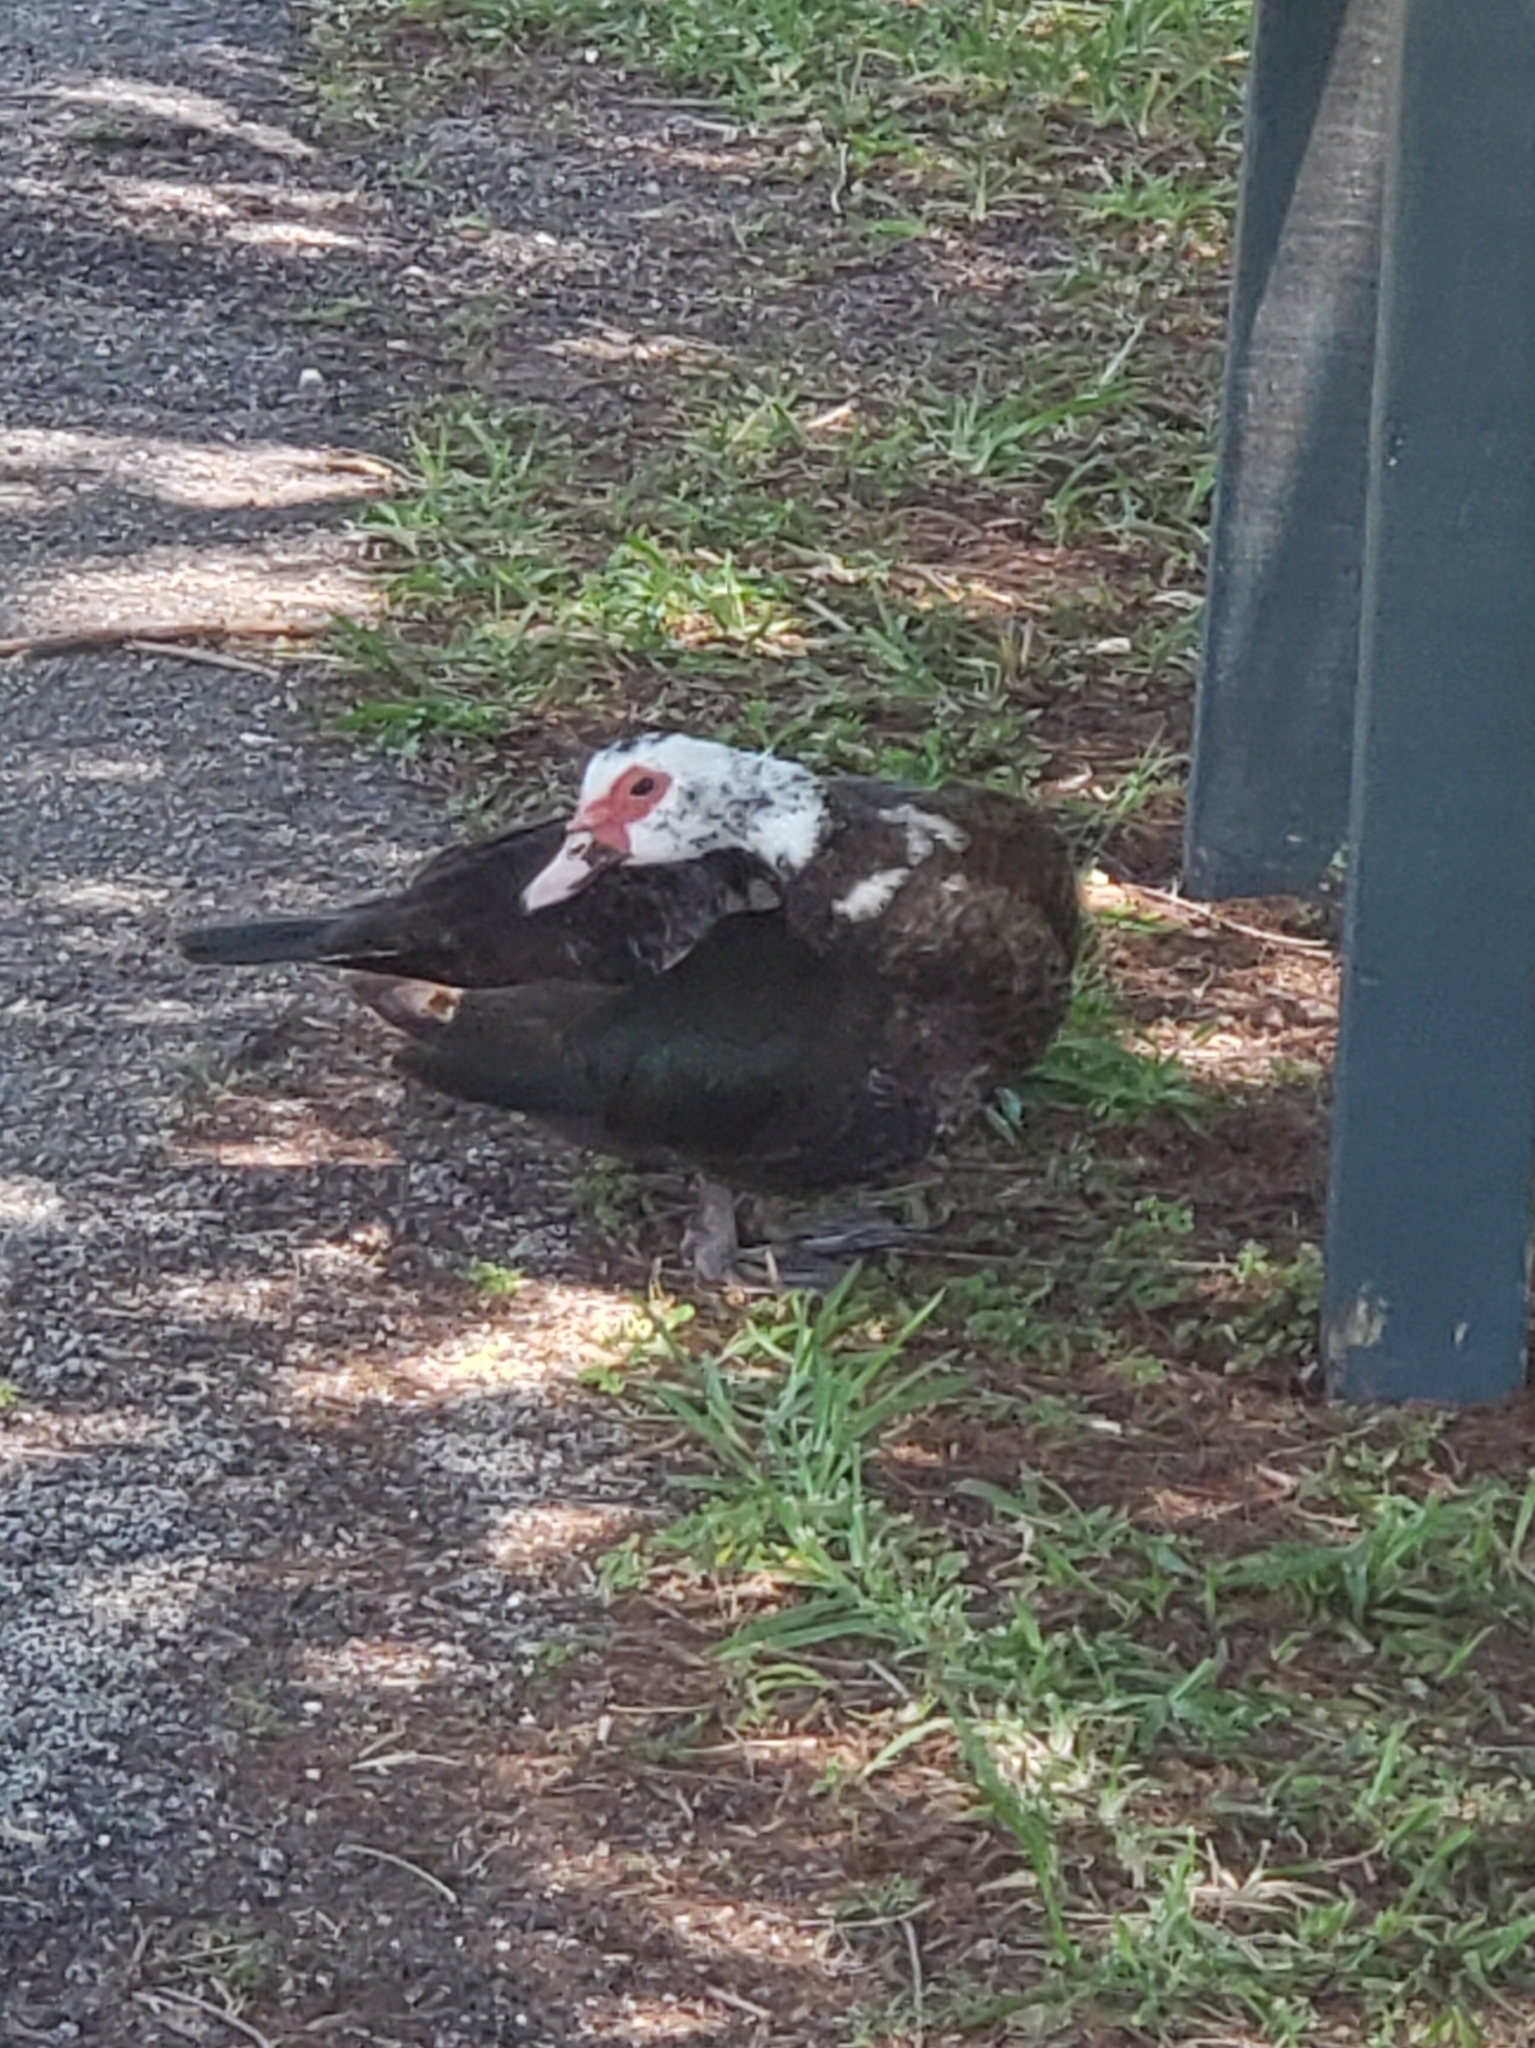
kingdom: Animalia
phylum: Chordata
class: Aves
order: Anseriformes
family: Anatidae
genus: Cairina
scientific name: Cairina moschata
